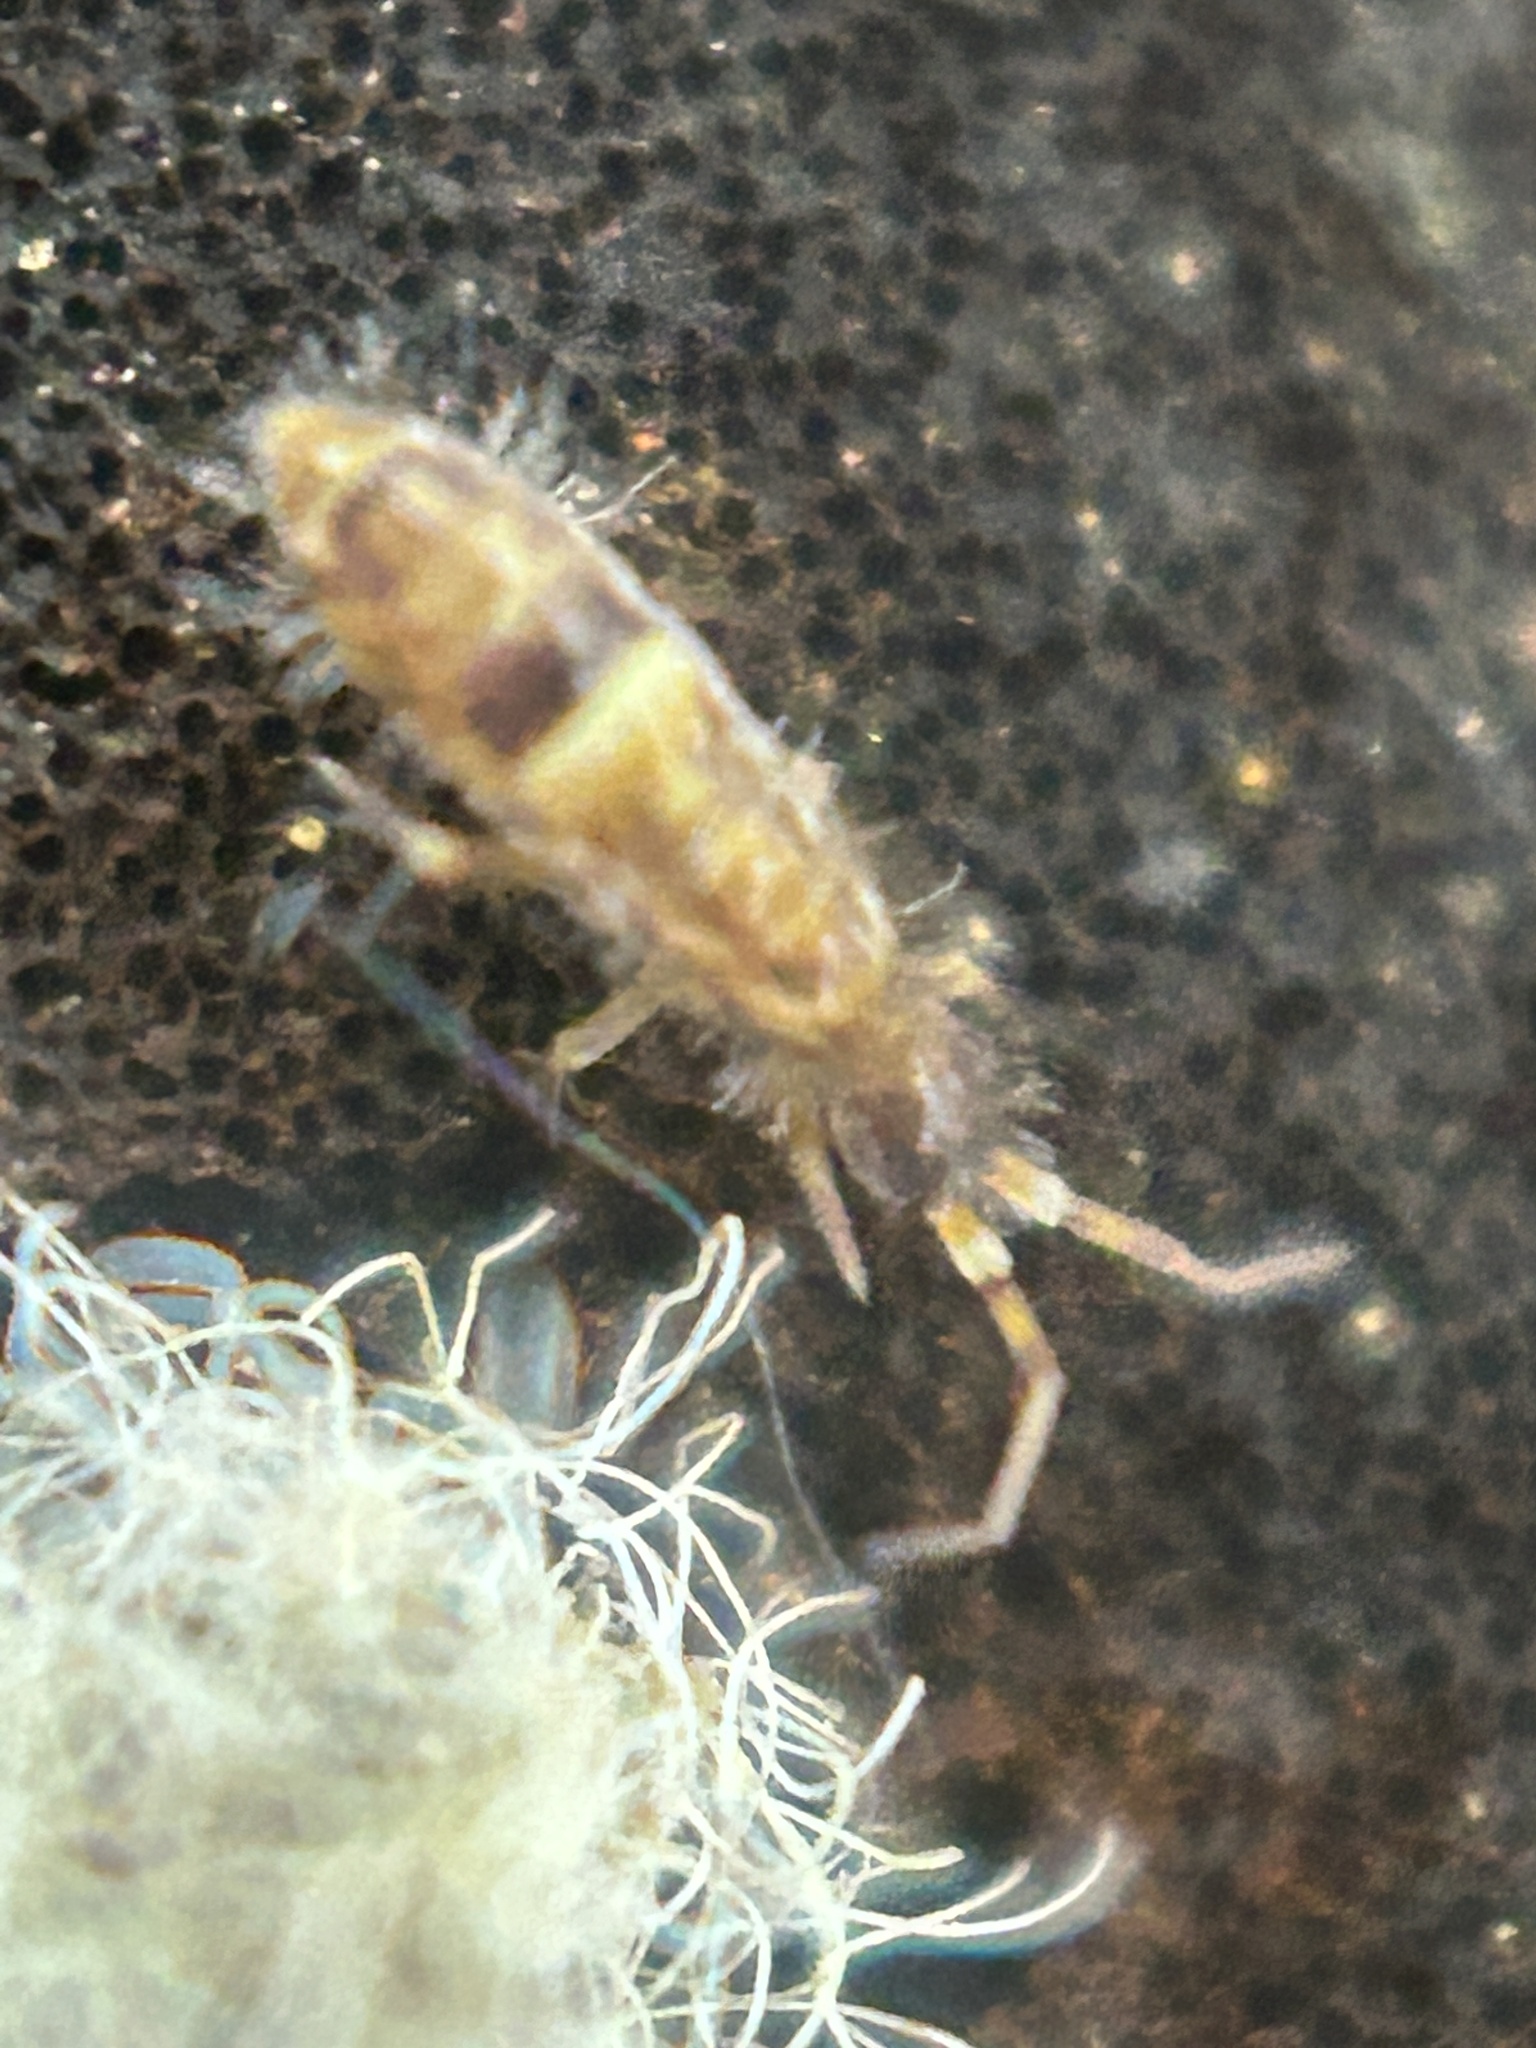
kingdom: Animalia
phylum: Arthropoda
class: Collembola
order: Entomobryomorpha
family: Orchesellidae
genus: Orchesella
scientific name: Orchesella cincta
